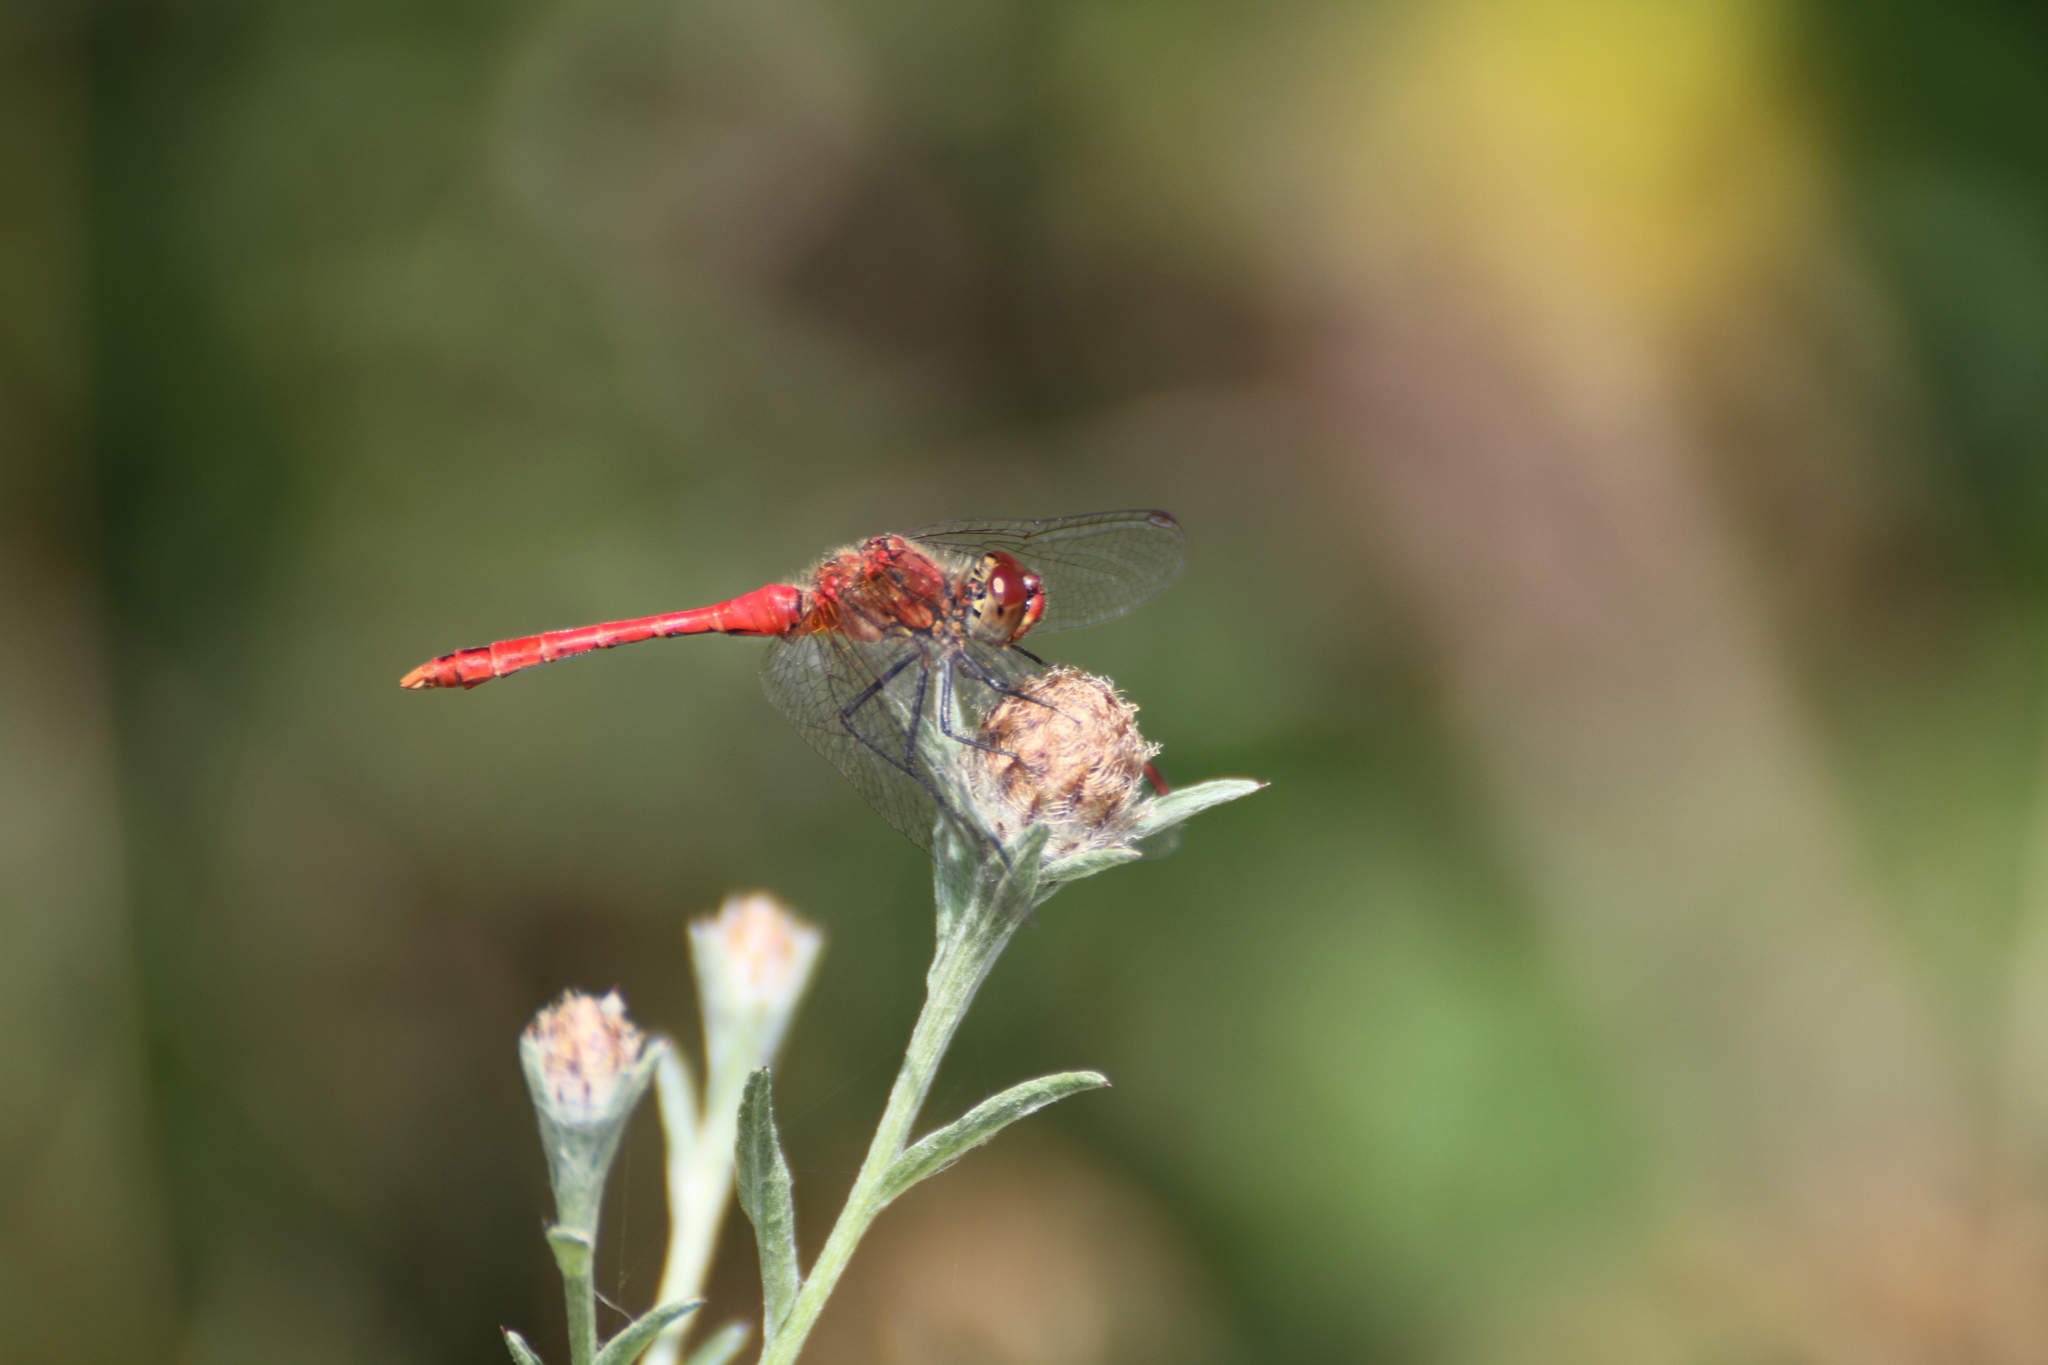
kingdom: Animalia
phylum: Arthropoda
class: Insecta
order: Odonata
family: Libellulidae
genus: Sympetrum
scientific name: Sympetrum sanguineum
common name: Ruddy darter
